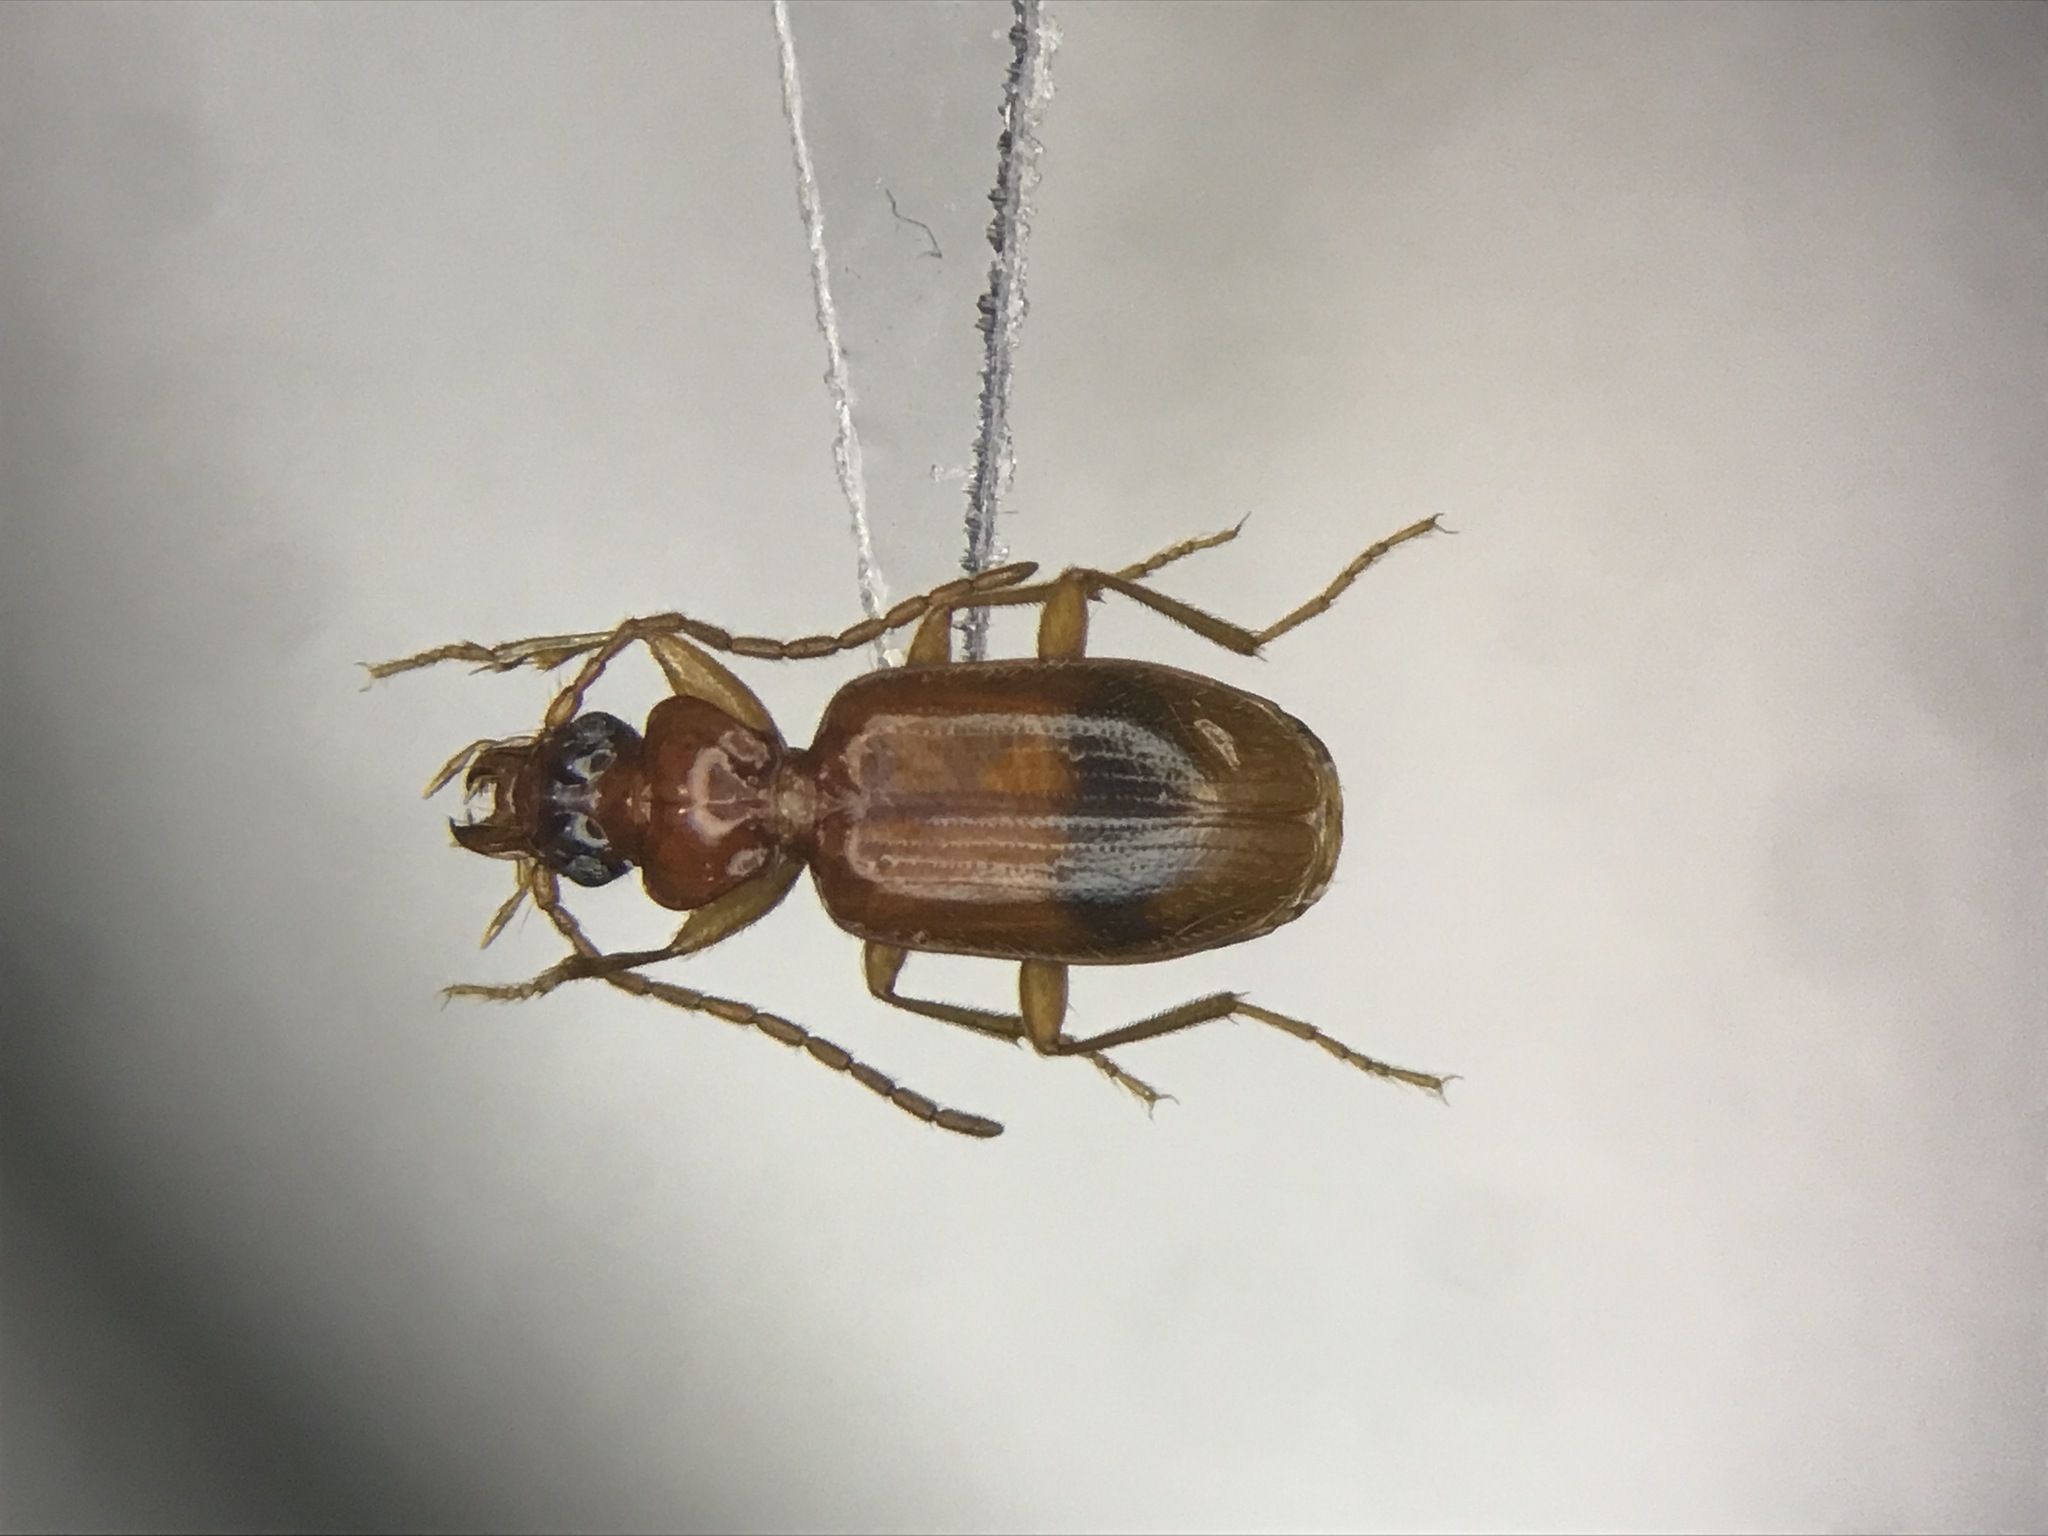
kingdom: Animalia
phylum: Arthropoda
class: Insecta
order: Coleoptera
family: Carabidae
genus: Blemus
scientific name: Blemus discus
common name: Discus riverbank ground beetle
